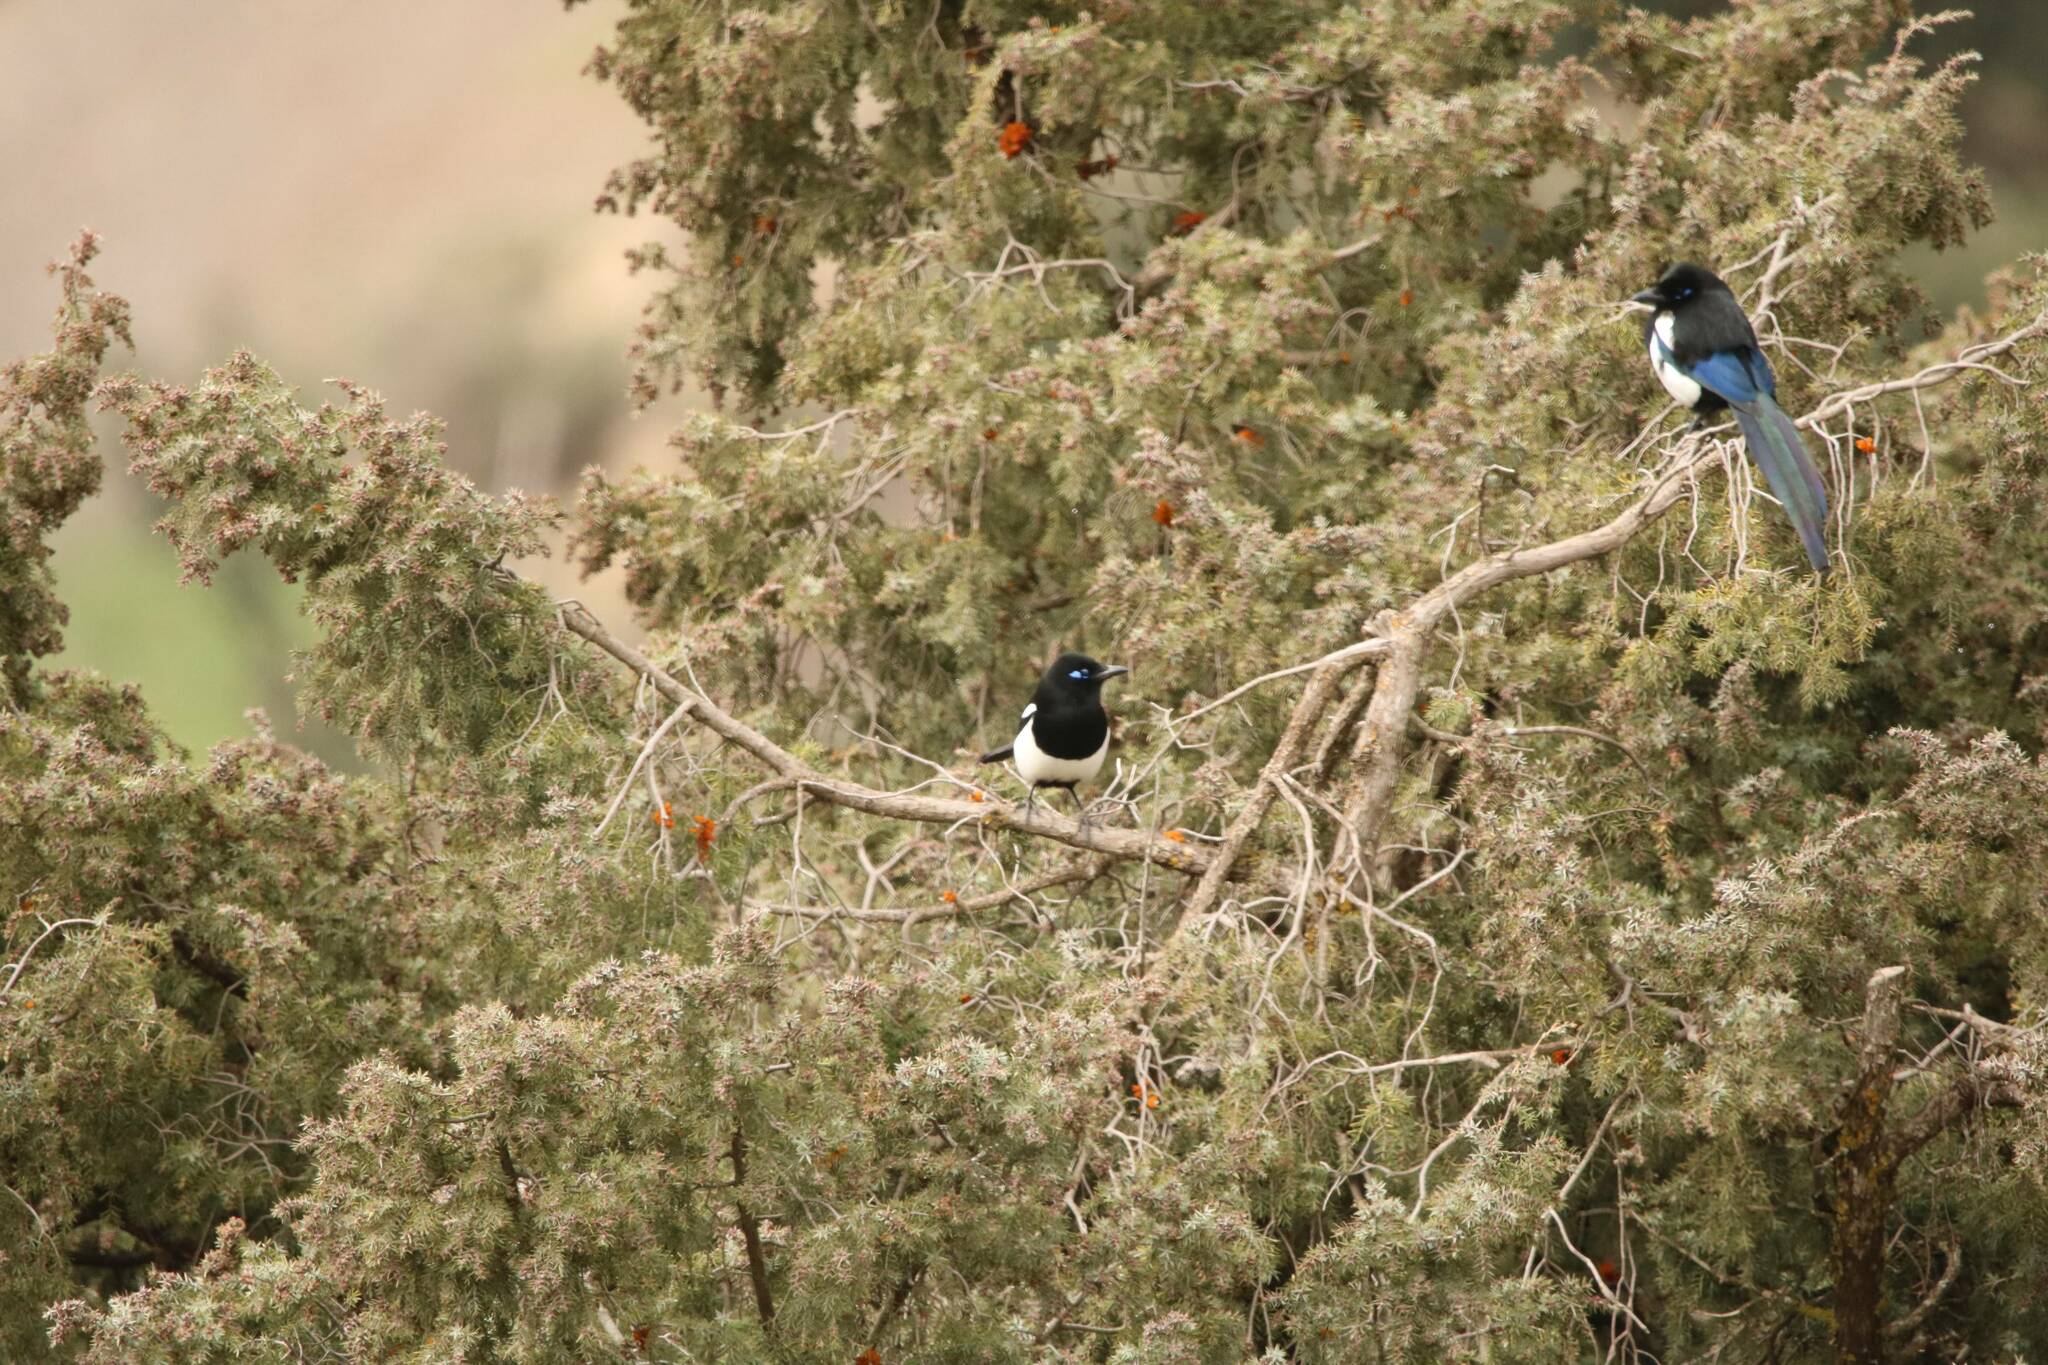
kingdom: Animalia
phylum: Chordata
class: Aves
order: Passeriformes
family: Corvidae
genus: Pica
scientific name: Pica mauritanica
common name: Maghreb magpie
